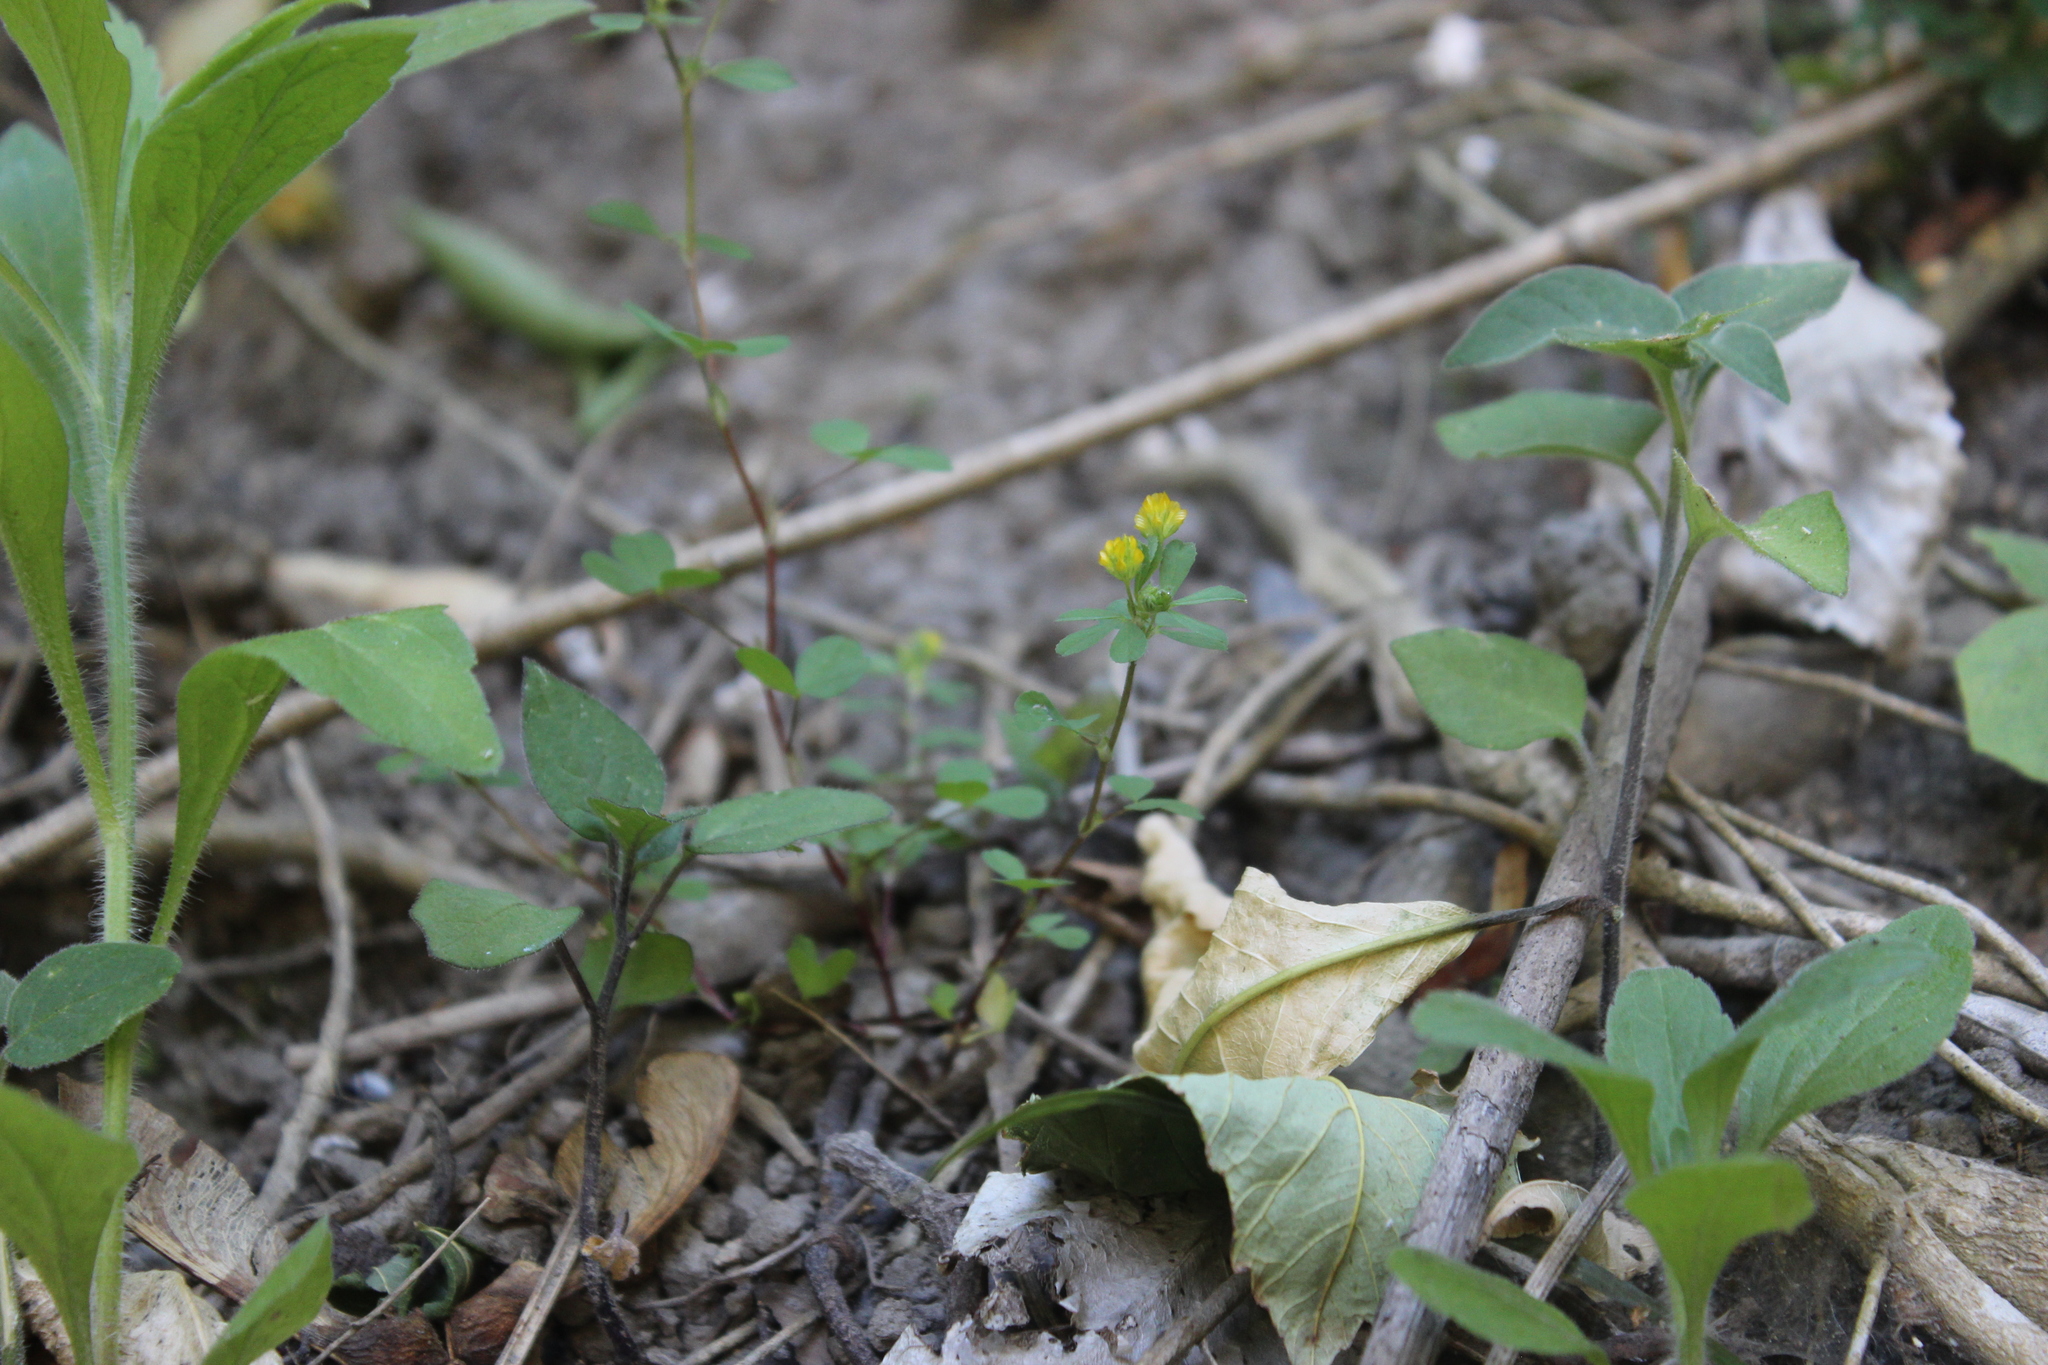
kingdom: Plantae
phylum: Tracheophyta
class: Magnoliopsida
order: Fabales
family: Fabaceae
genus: Trifolium
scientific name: Trifolium dubium
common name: Suckling clover
